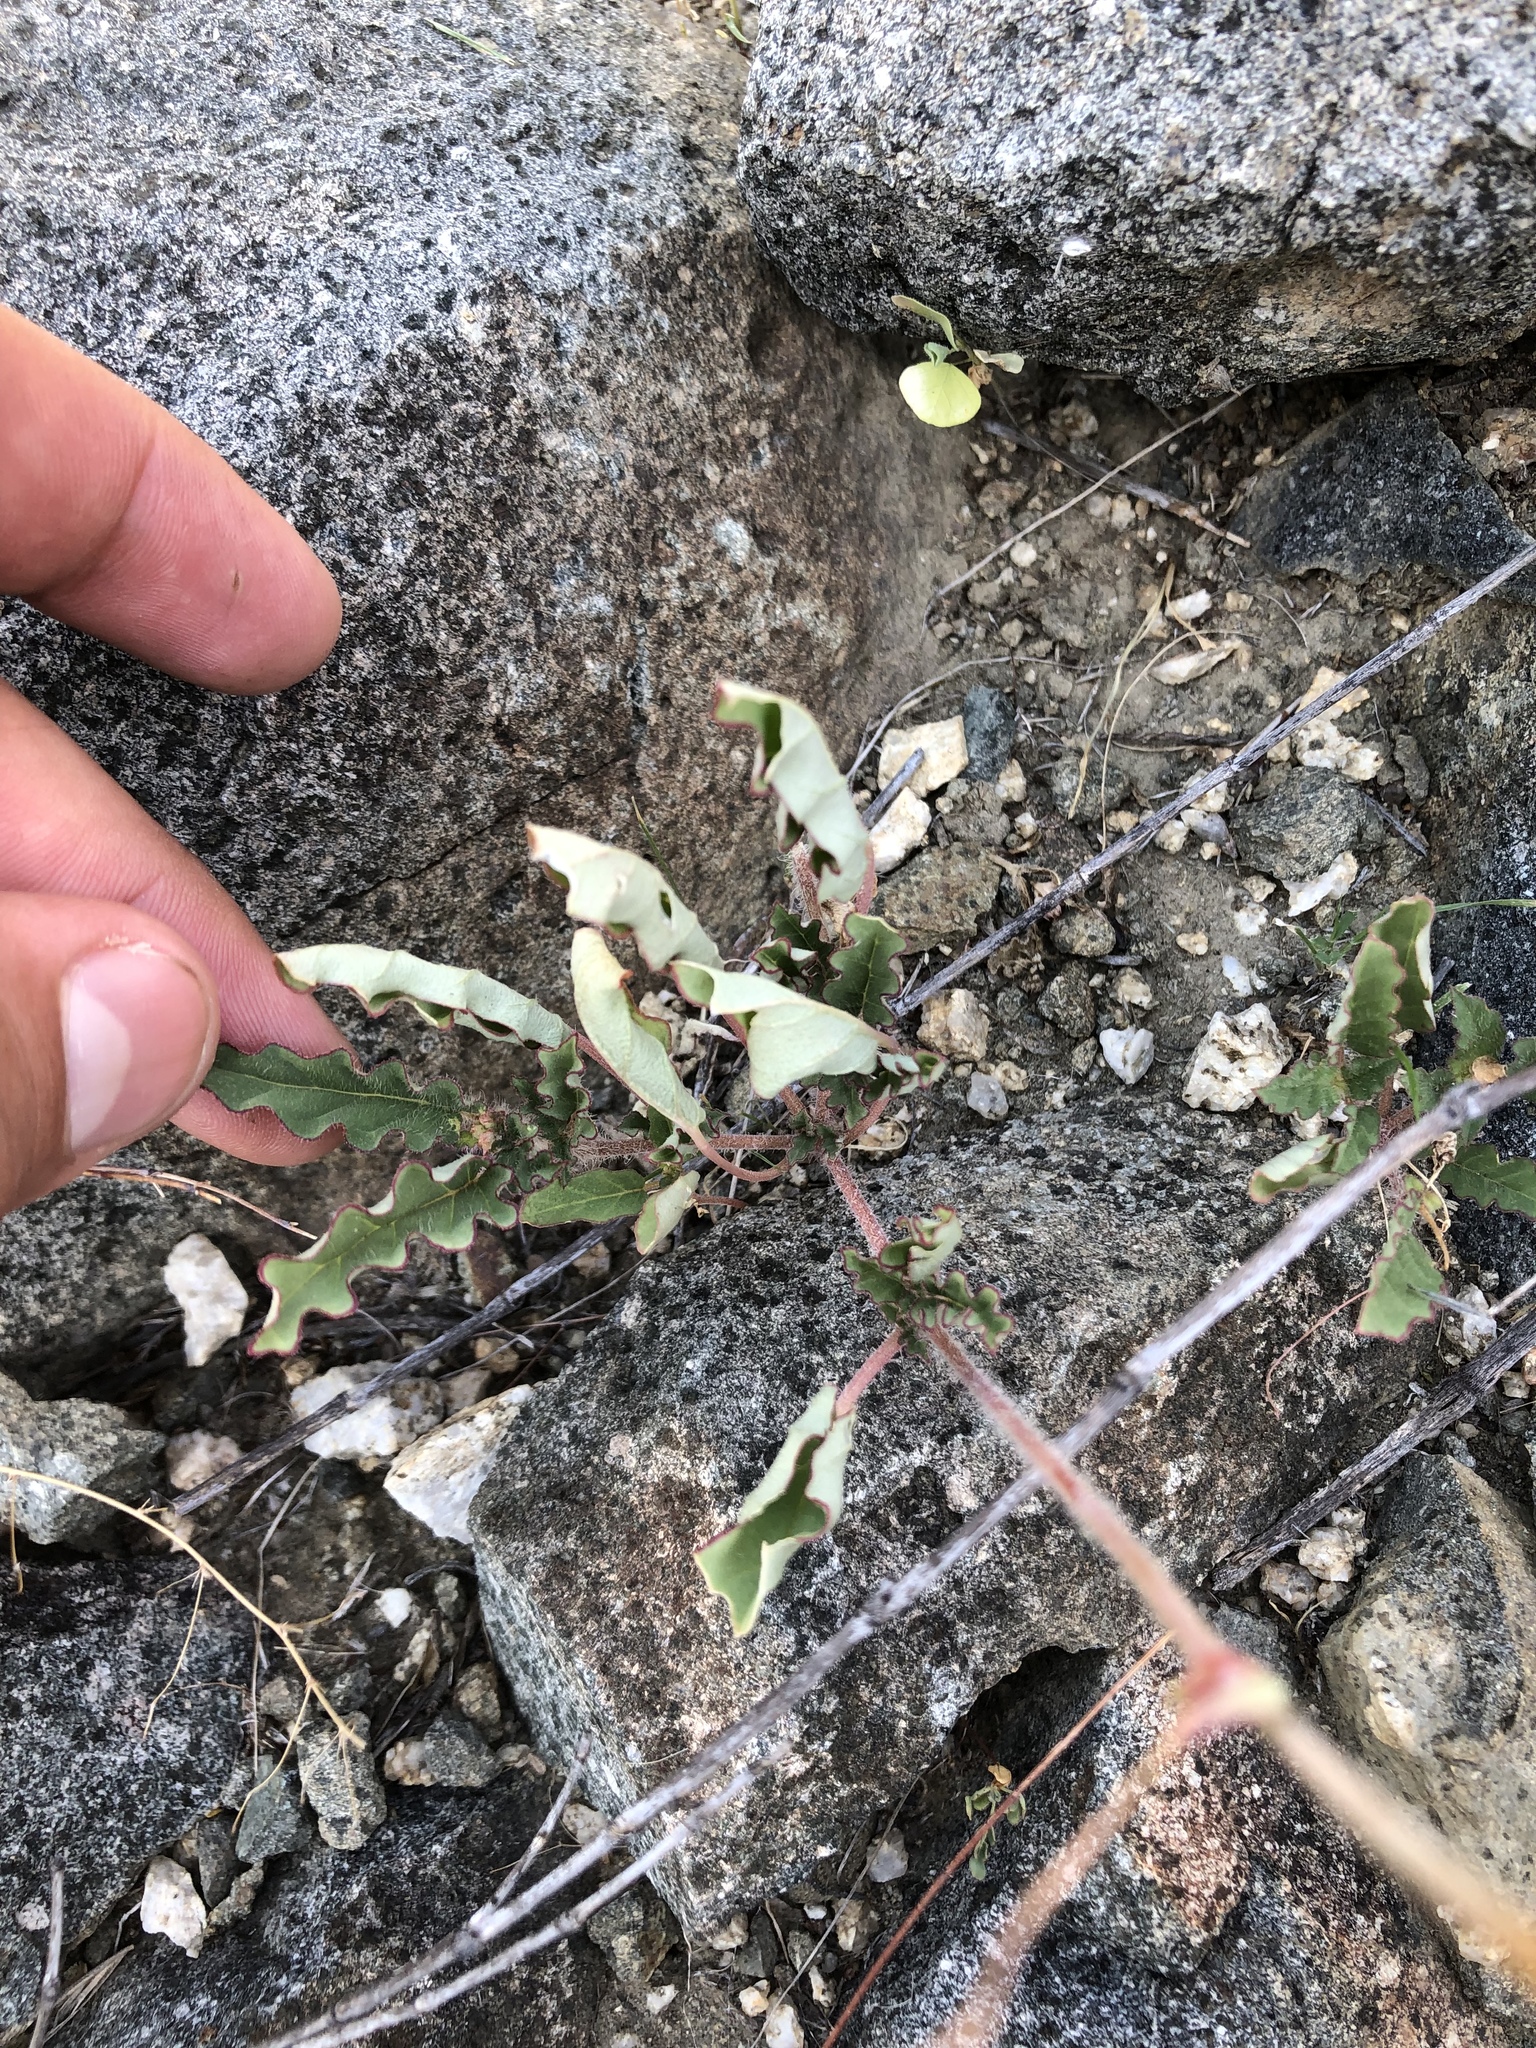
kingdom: Plantae
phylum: Tracheophyta
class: Magnoliopsida
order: Caryophyllales
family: Nyctaginaceae
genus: Boerhavia
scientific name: Boerhavia xantii
